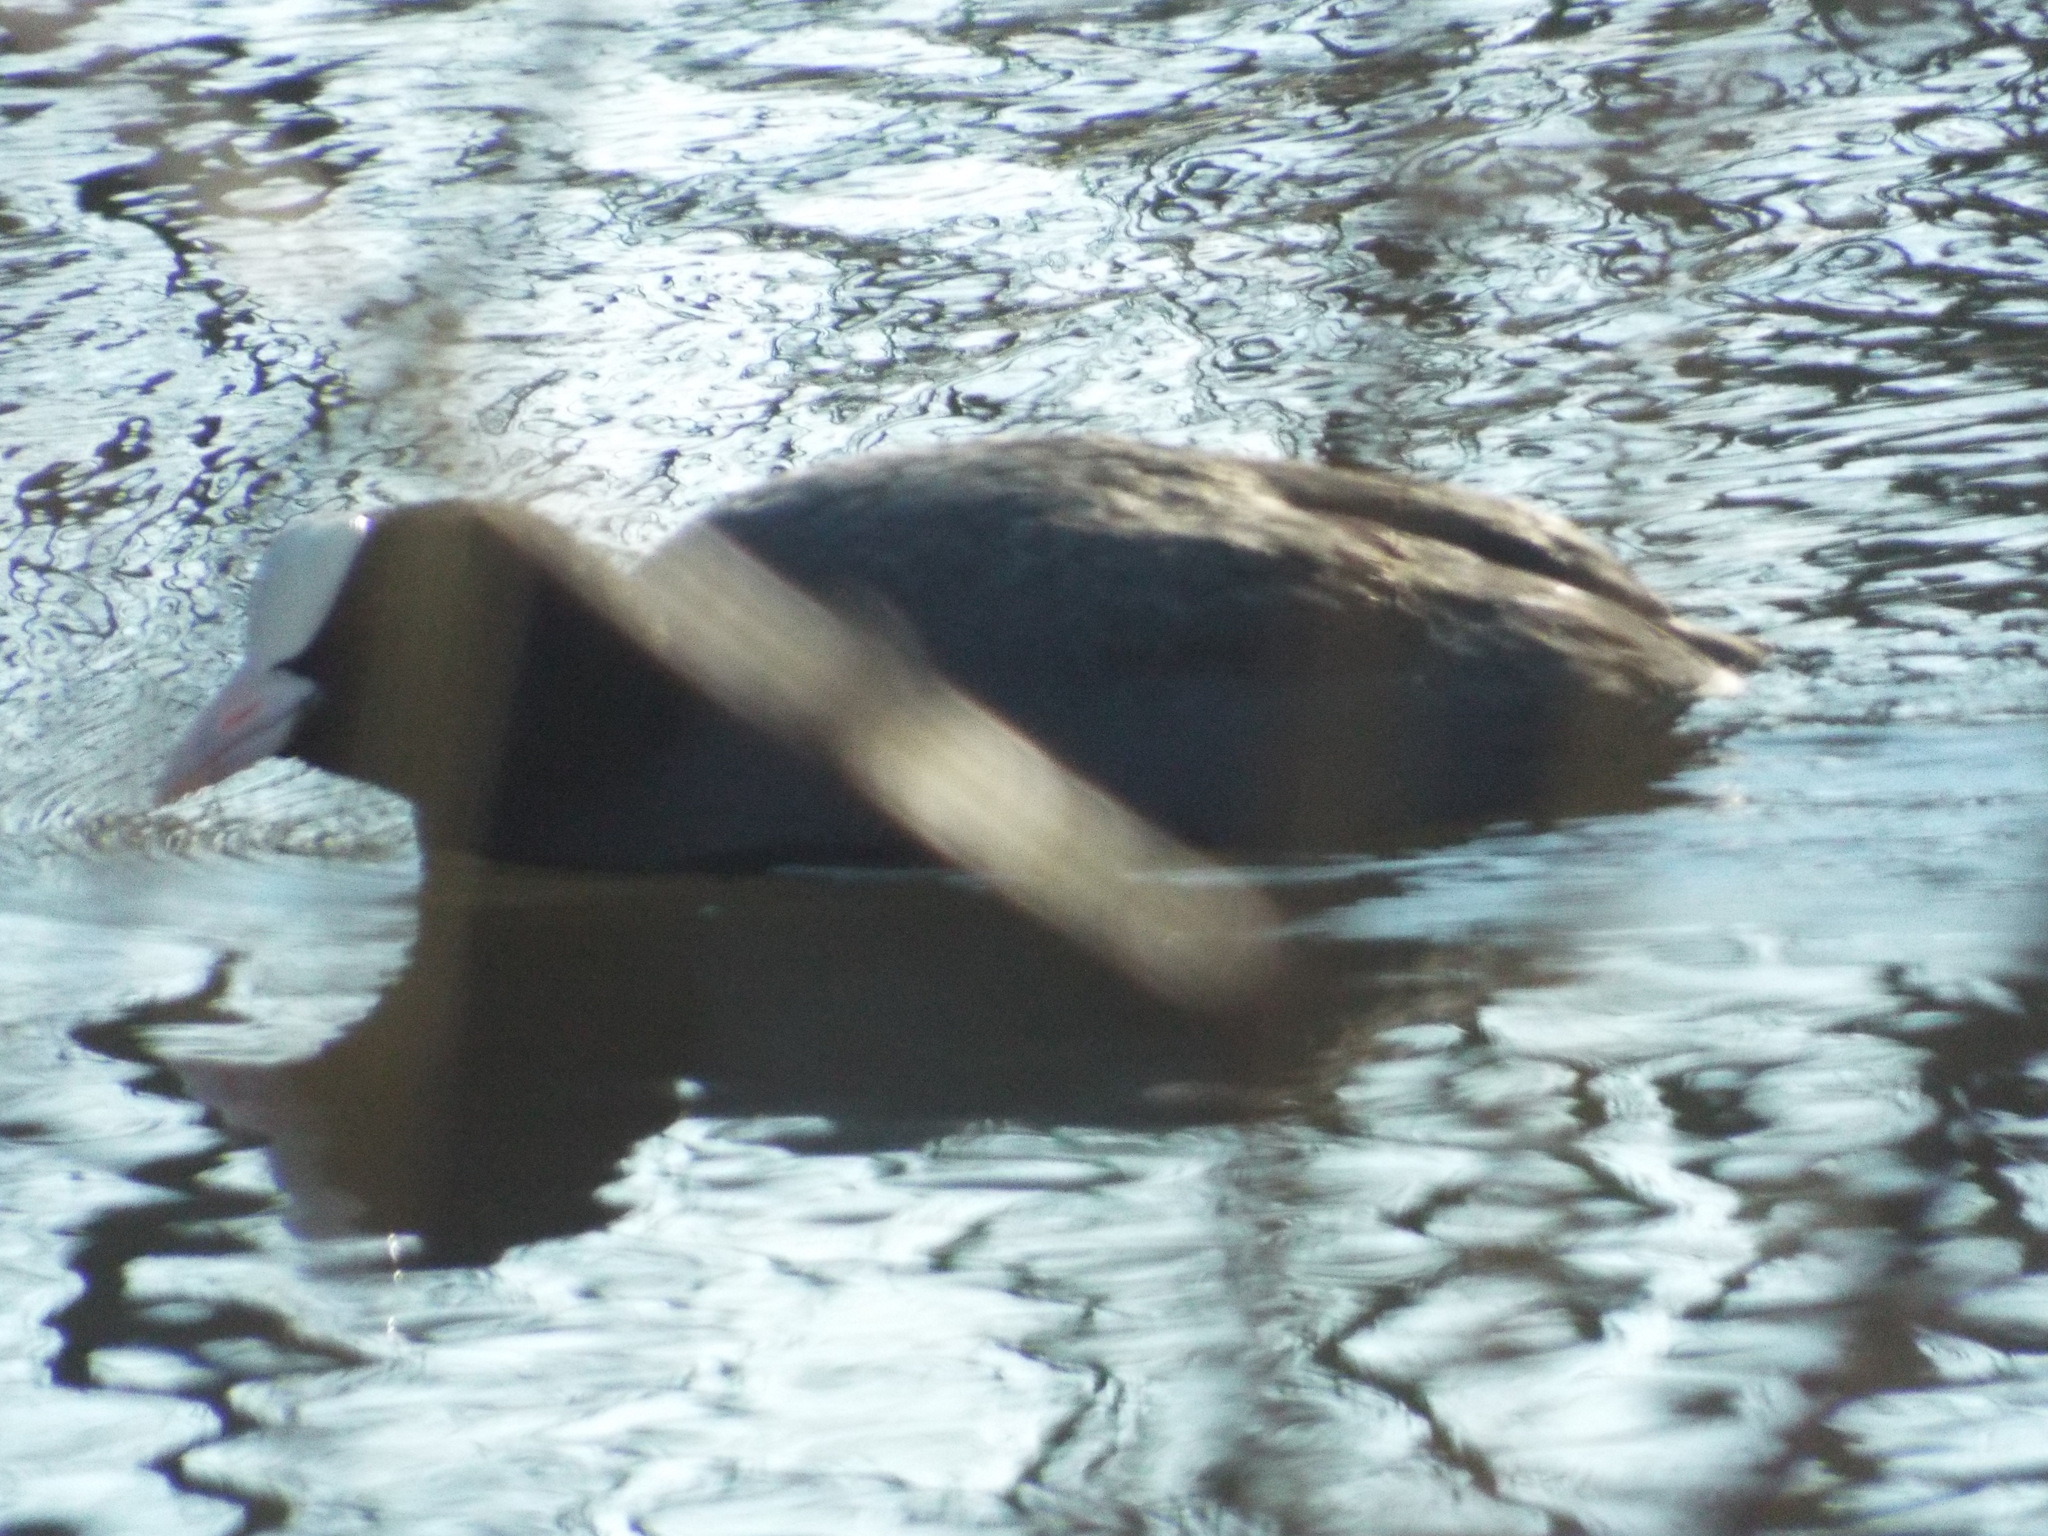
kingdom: Animalia
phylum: Chordata
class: Aves
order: Gruiformes
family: Rallidae
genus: Fulica
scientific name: Fulica atra
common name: Eurasian coot
